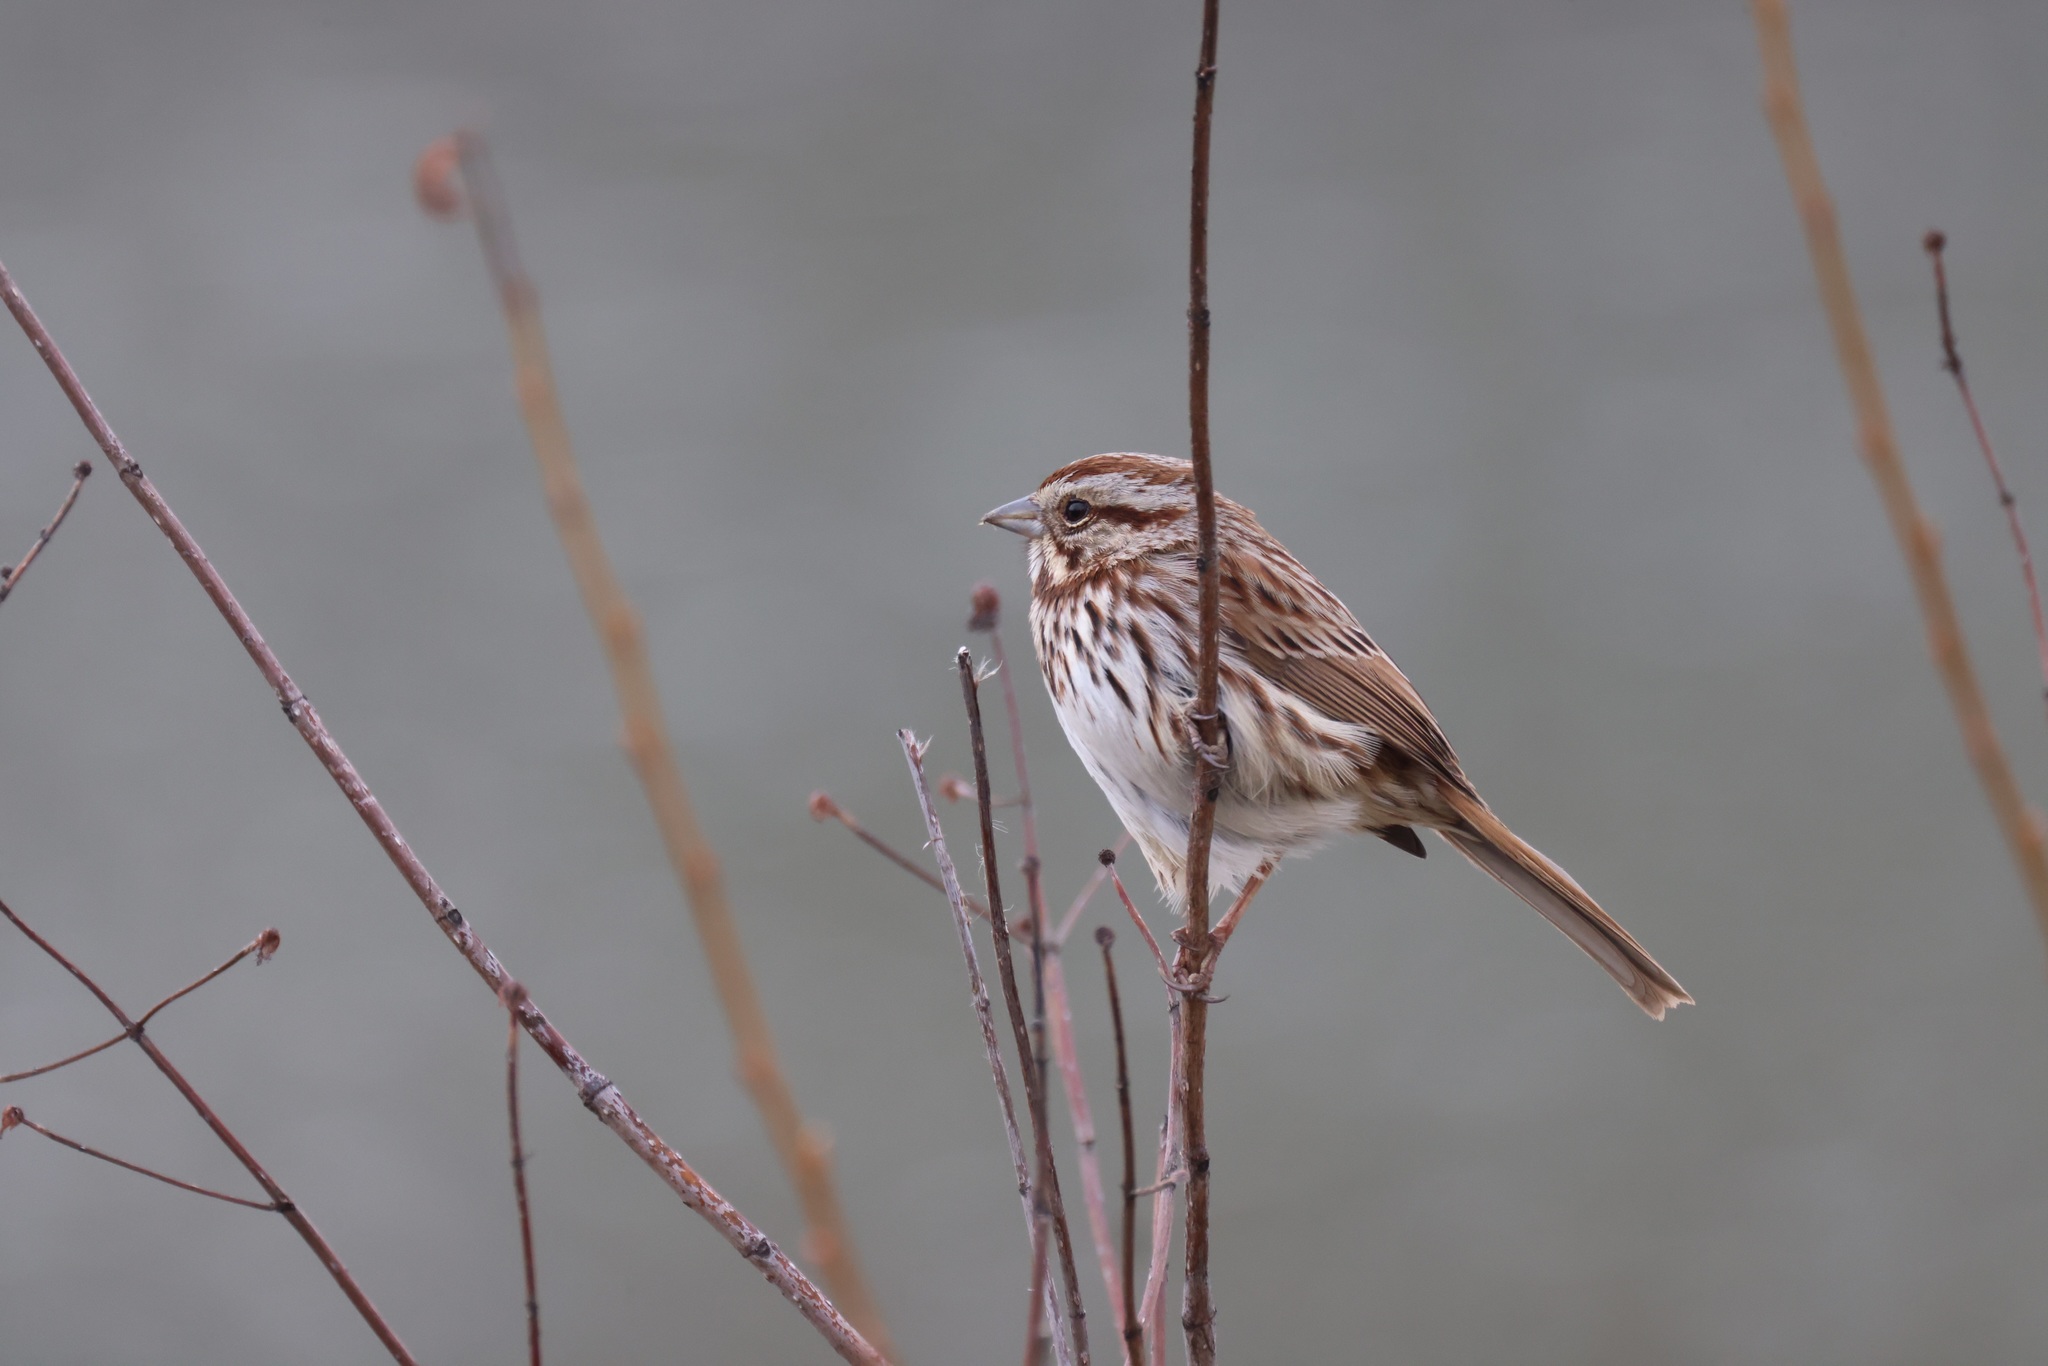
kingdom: Animalia
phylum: Chordata
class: Aves
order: Passeriformes
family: Passerellidae
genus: Melospiza
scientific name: Melospiza melodia
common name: Song sparrow
